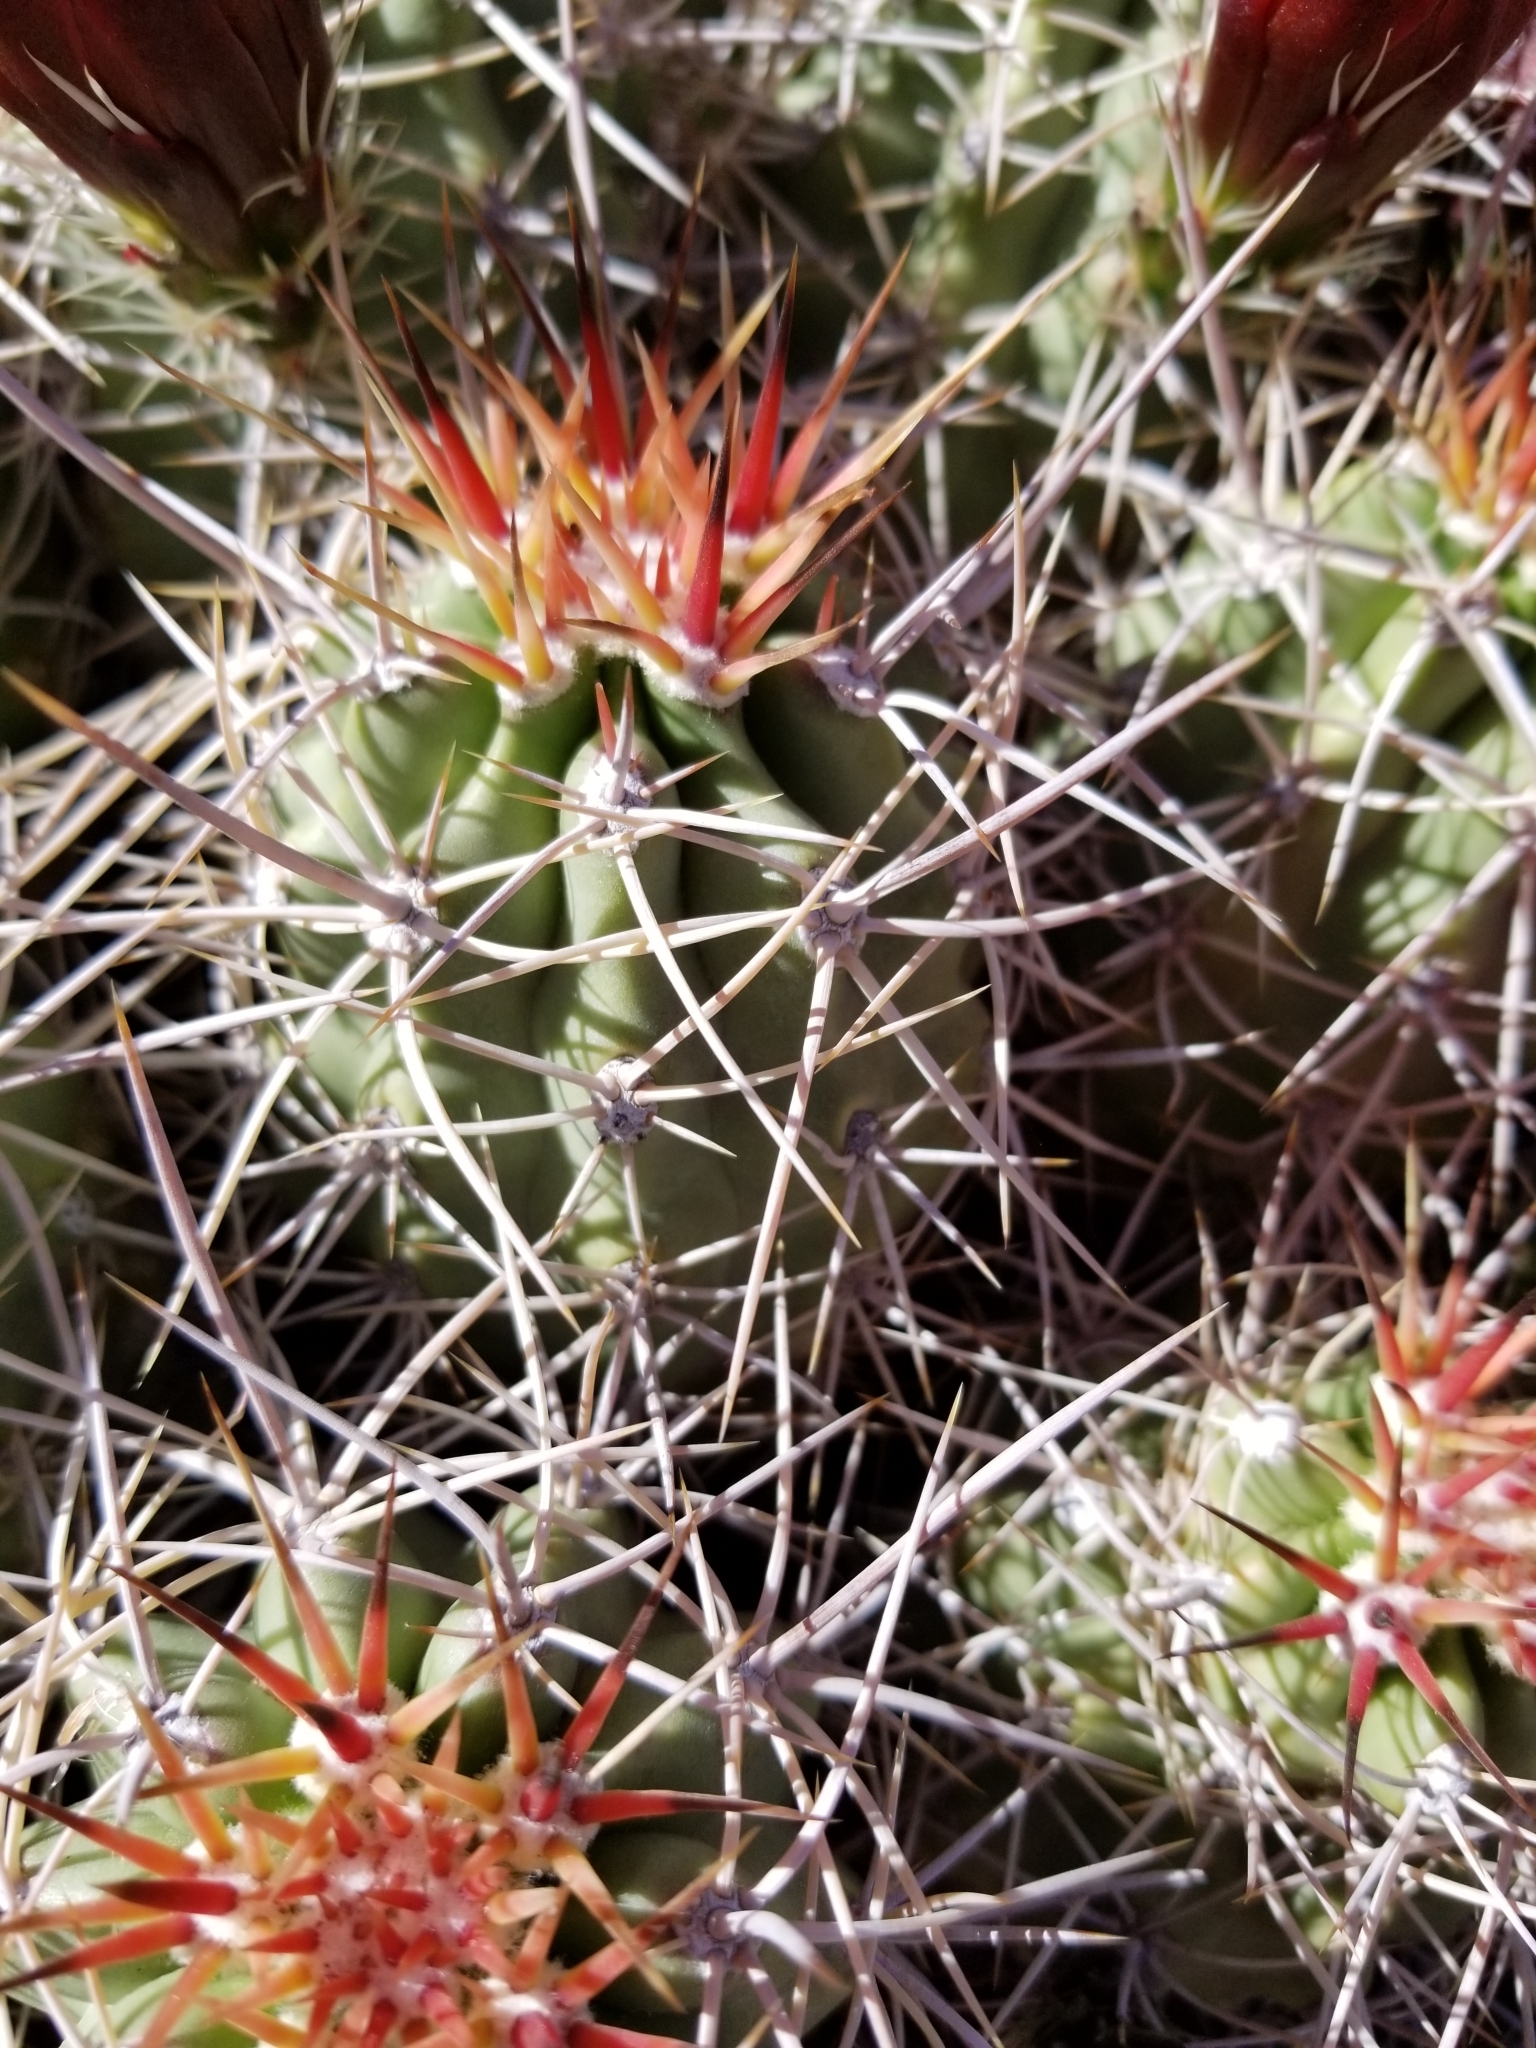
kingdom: Plantae
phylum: Tracheophyta
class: Magnoliopsida
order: Caryophyllales
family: Cactaceae
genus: Echinocereus
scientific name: Echinocereus triglochidiatus
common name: Claretcup hedgehog
